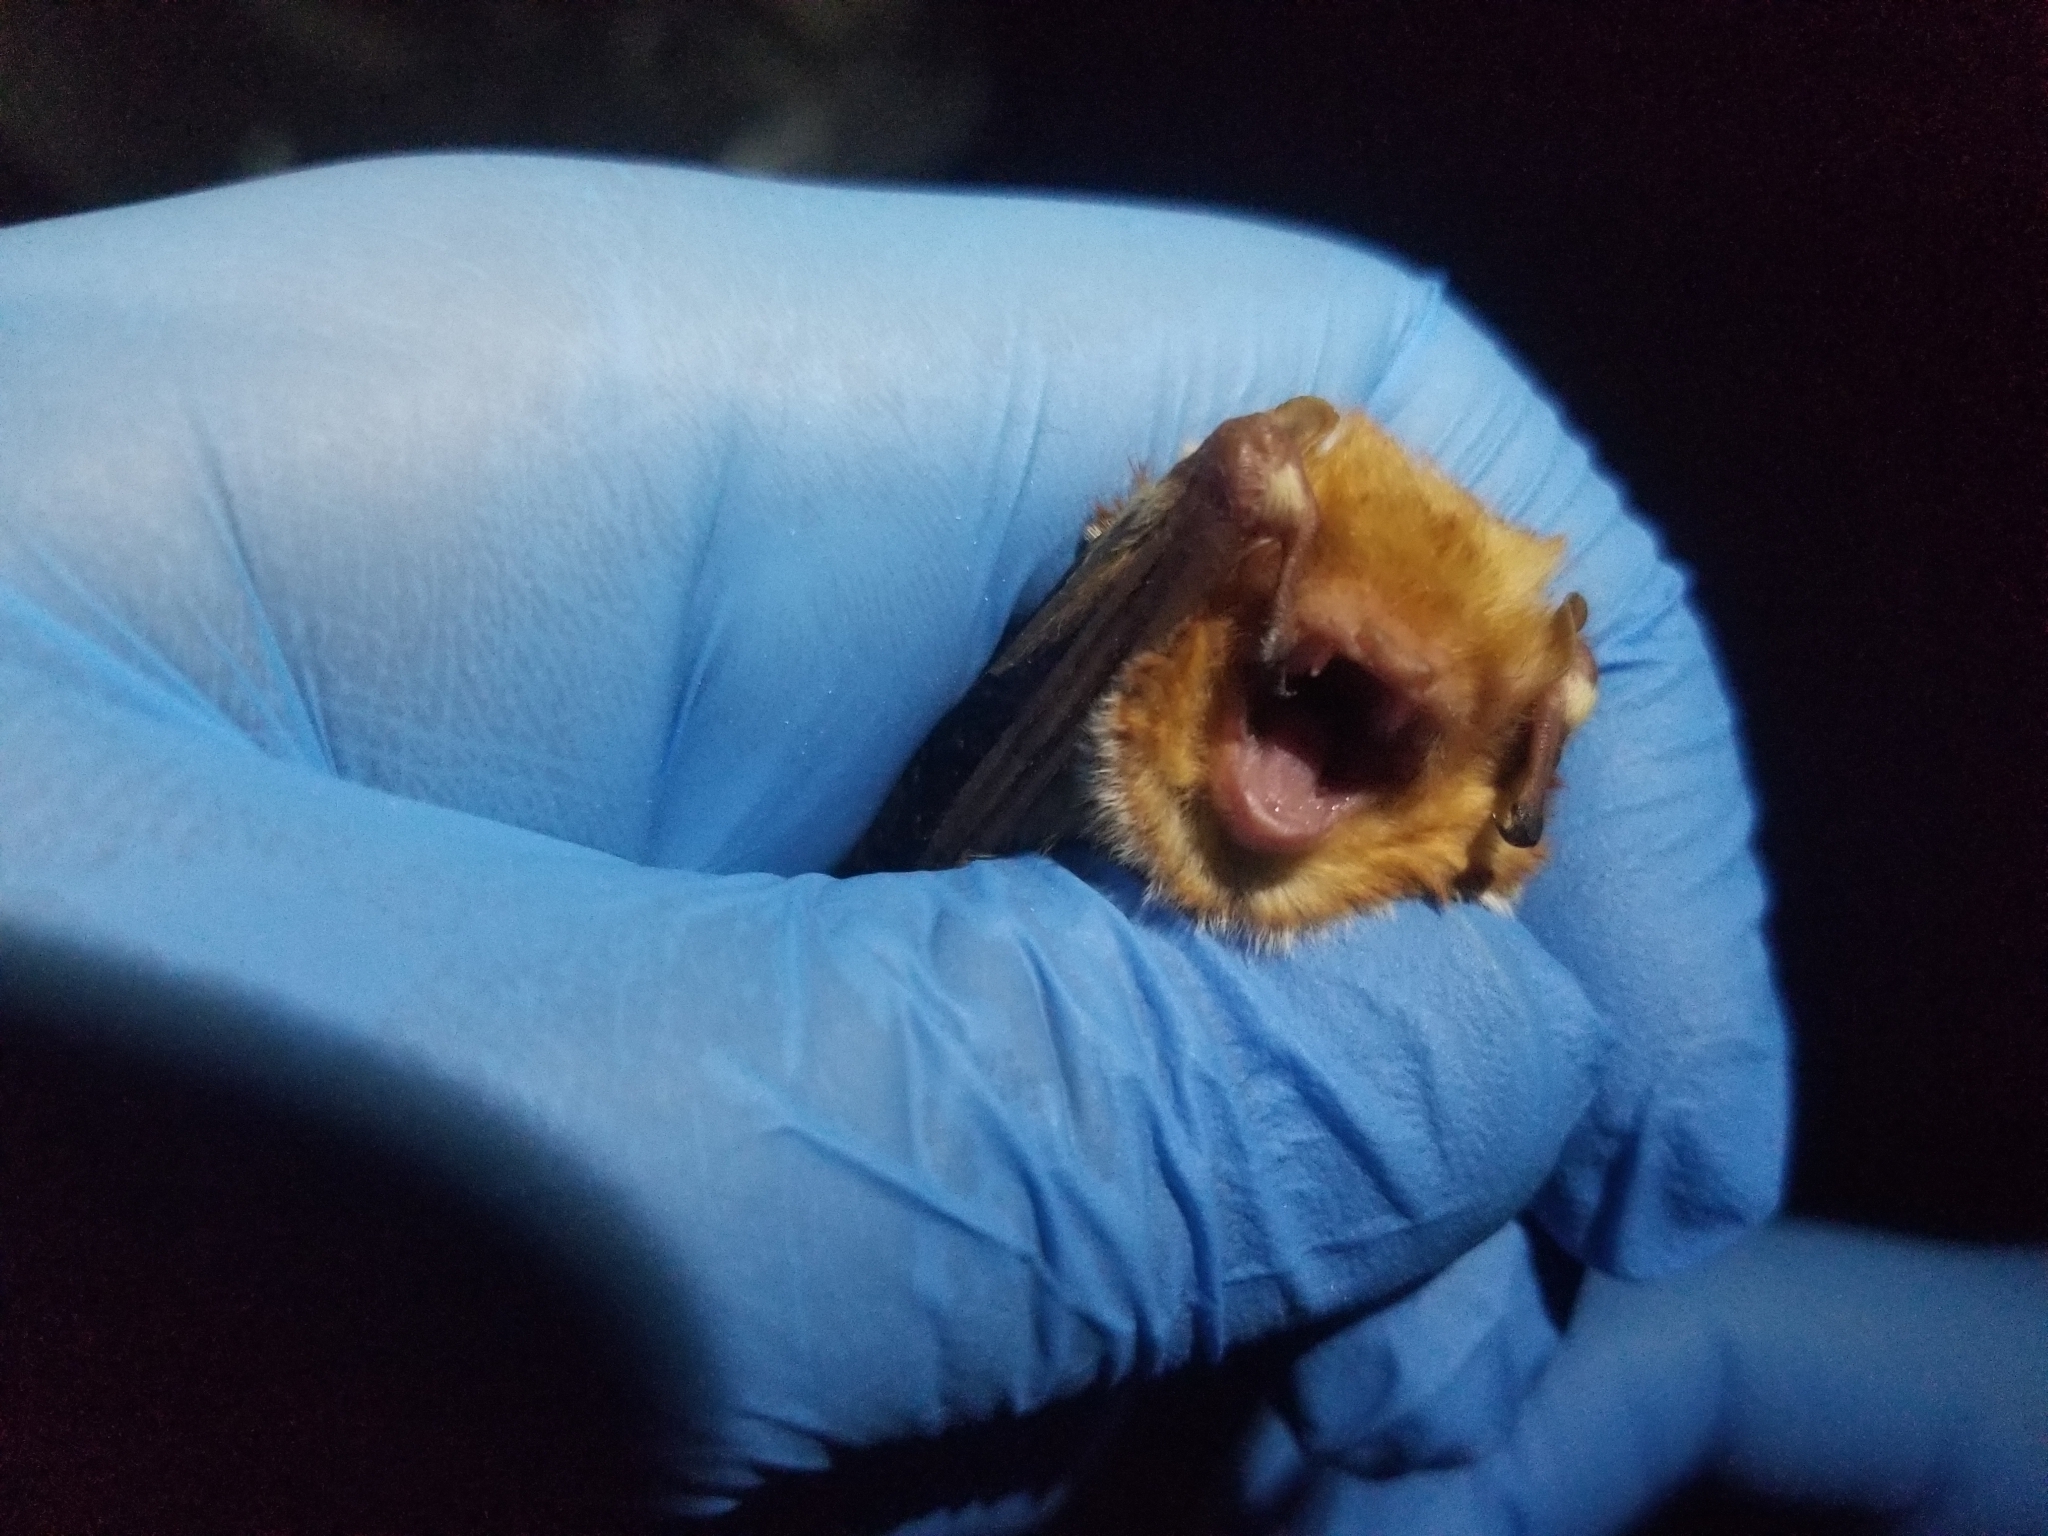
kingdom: Animalia
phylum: Chordata
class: Mammalia
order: Chiroptera
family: Vespertilionidae
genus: Lasiurus
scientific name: Lasiurus borealis
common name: Eastern red bat
